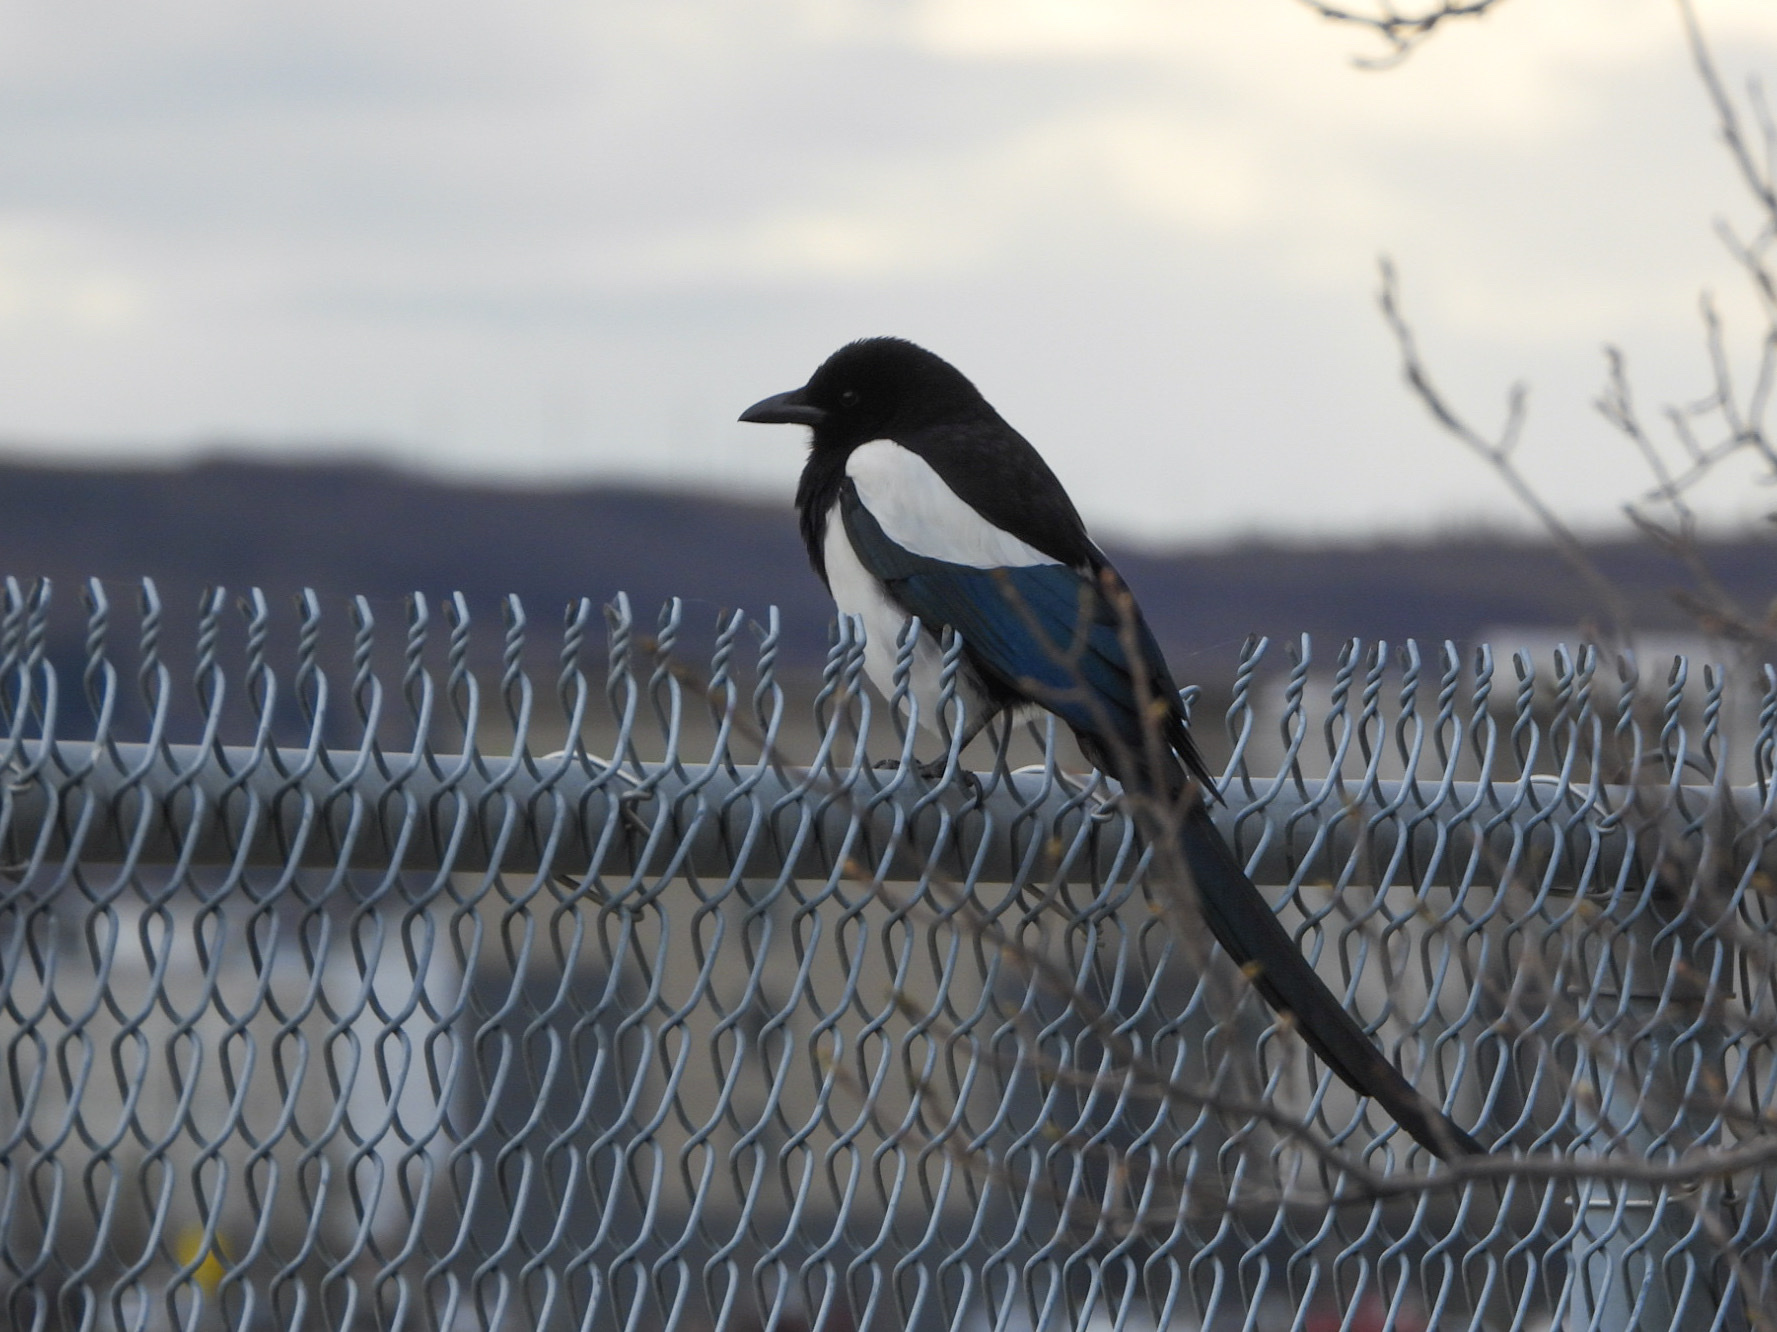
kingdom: Animalia
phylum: Chordata
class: Aves
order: Passeriformes
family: Corvidae
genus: Pica
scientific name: Pica hudsonia
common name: Black-billed magpie
